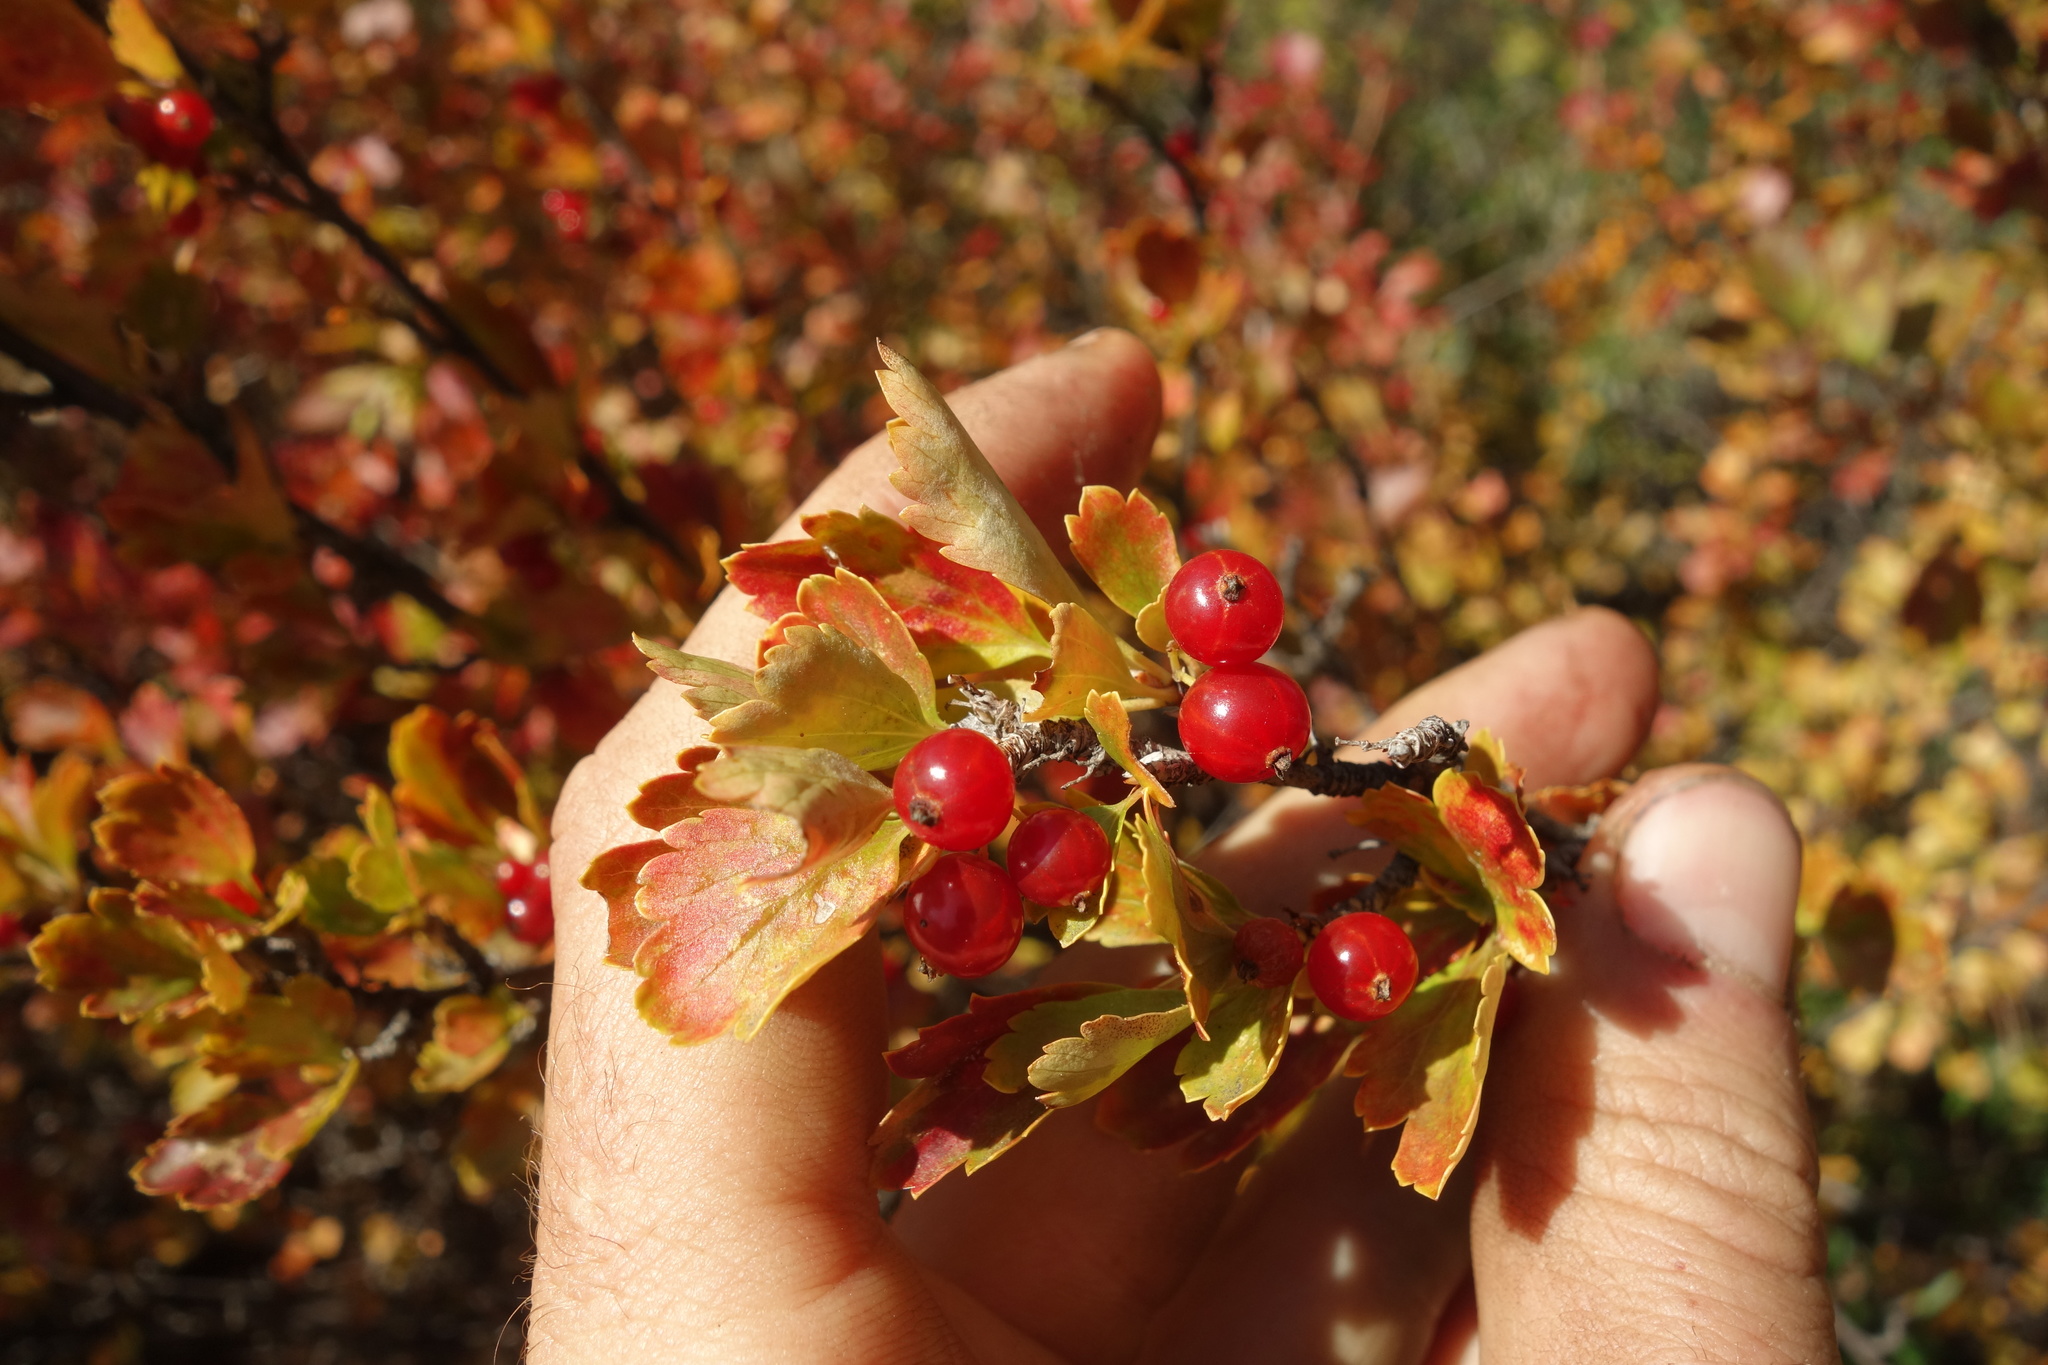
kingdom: Plantae
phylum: Tracheophyta
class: Magnoliopsida
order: Saxifragales
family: Grossulariaceae
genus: Ribes
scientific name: Ribes diacanthum
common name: Siberian currant
